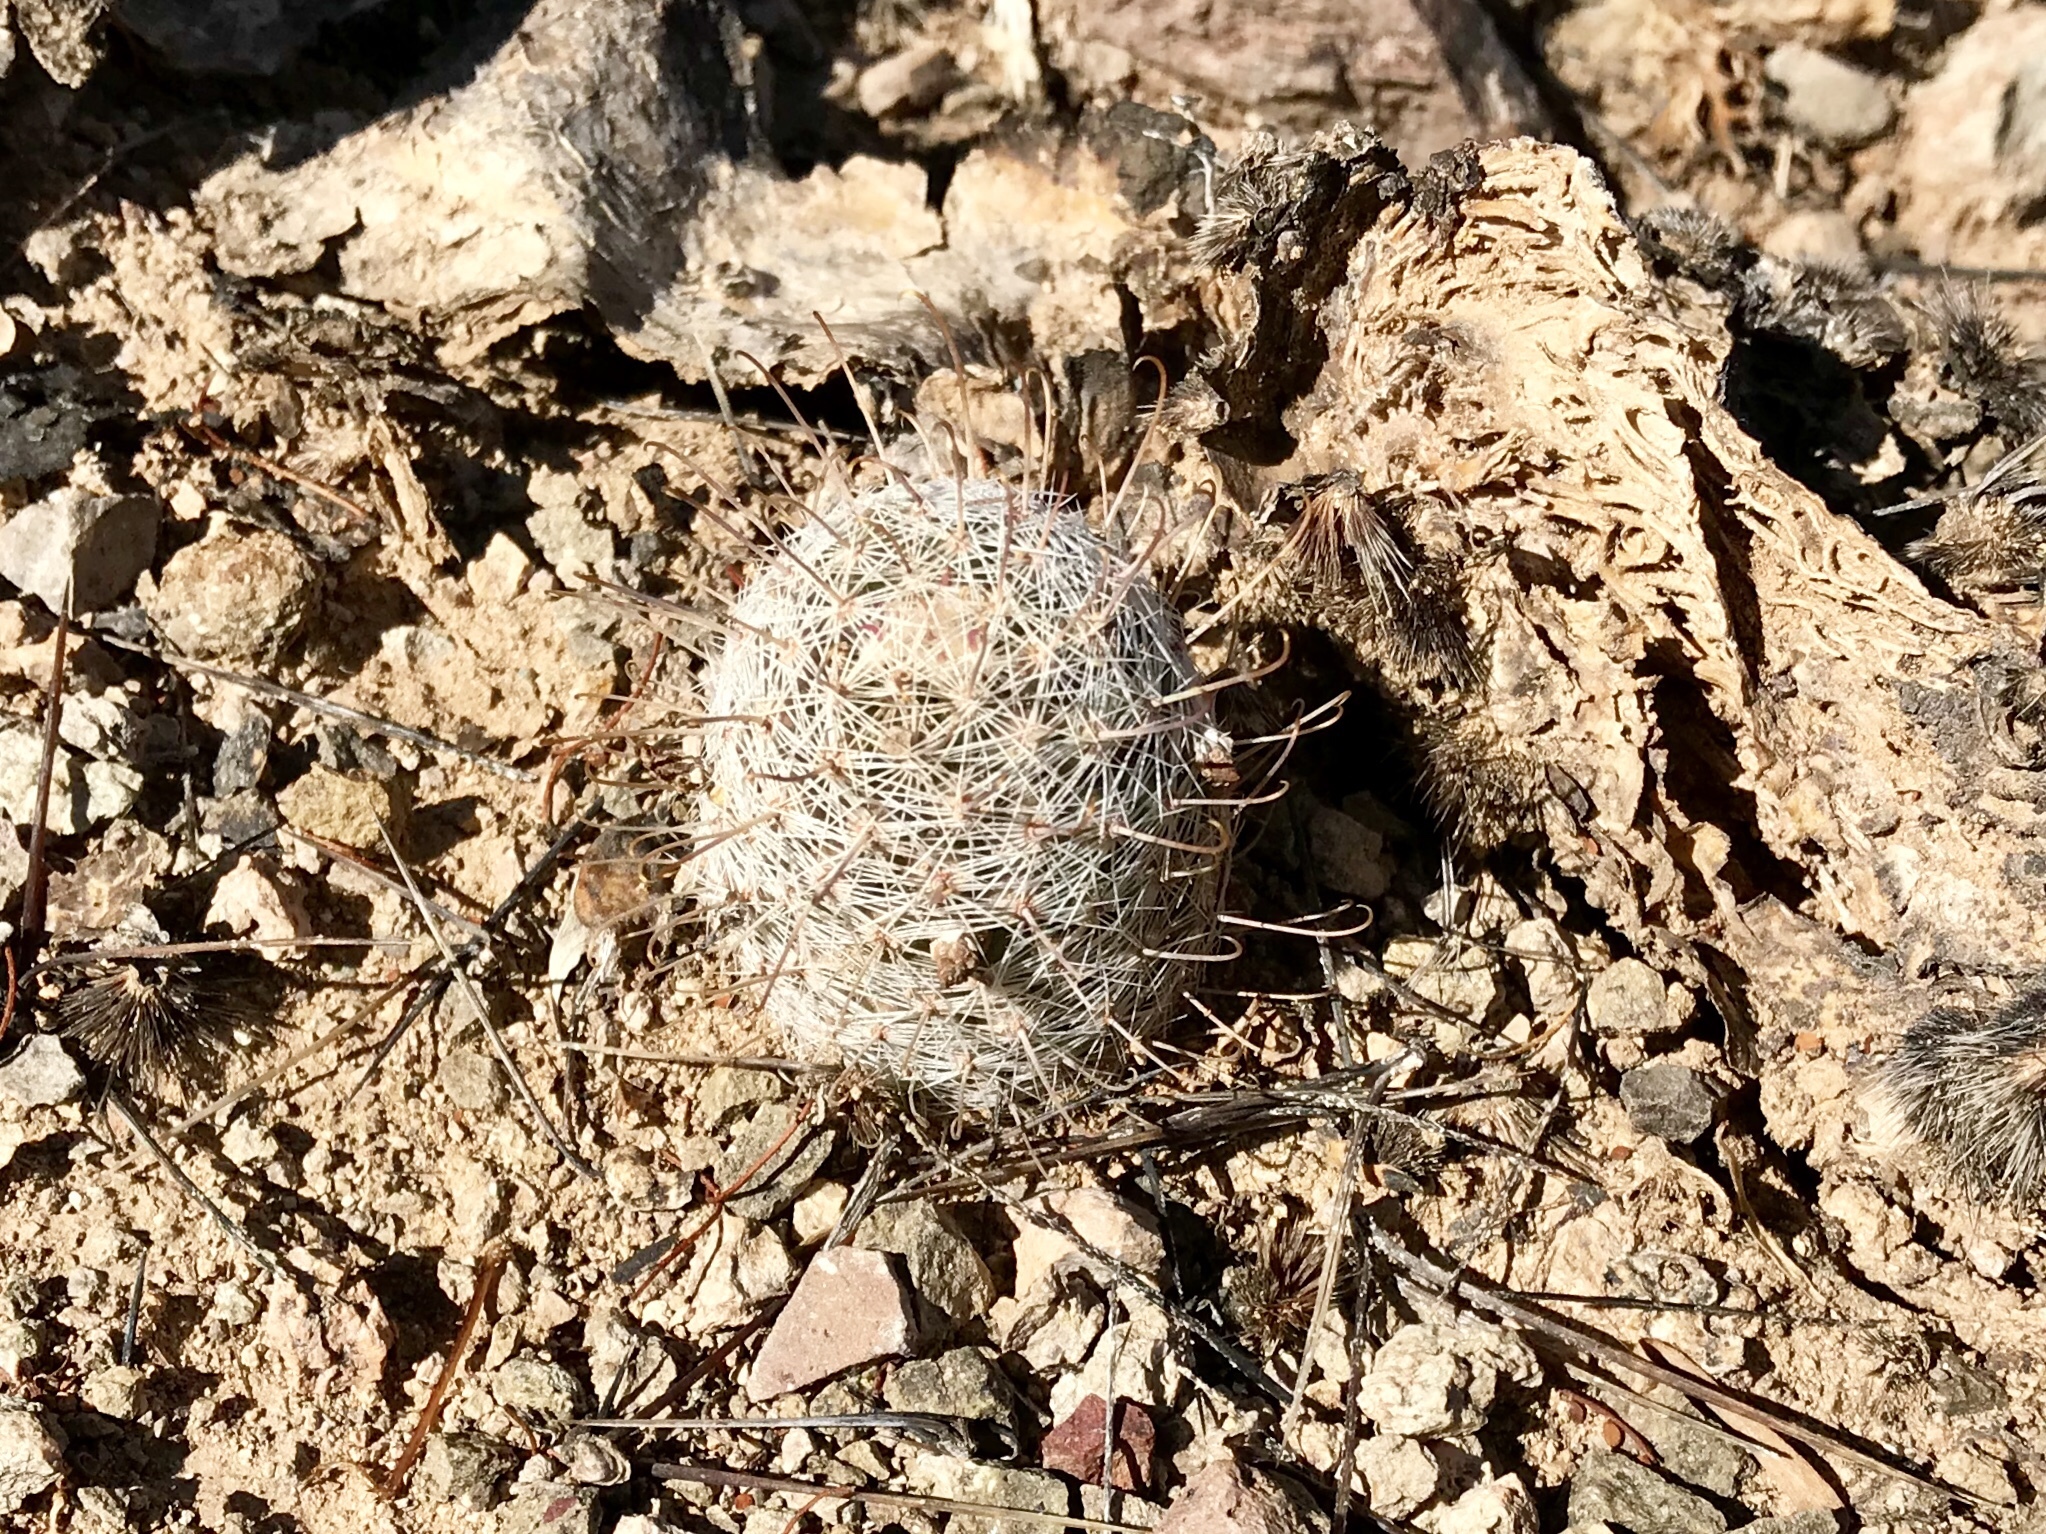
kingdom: Plantae
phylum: Tracheophyta
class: Magnoliopsida
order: Caryophyllales
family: Cactaceae
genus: Cochemiea
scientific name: Cochemiea grahamii
